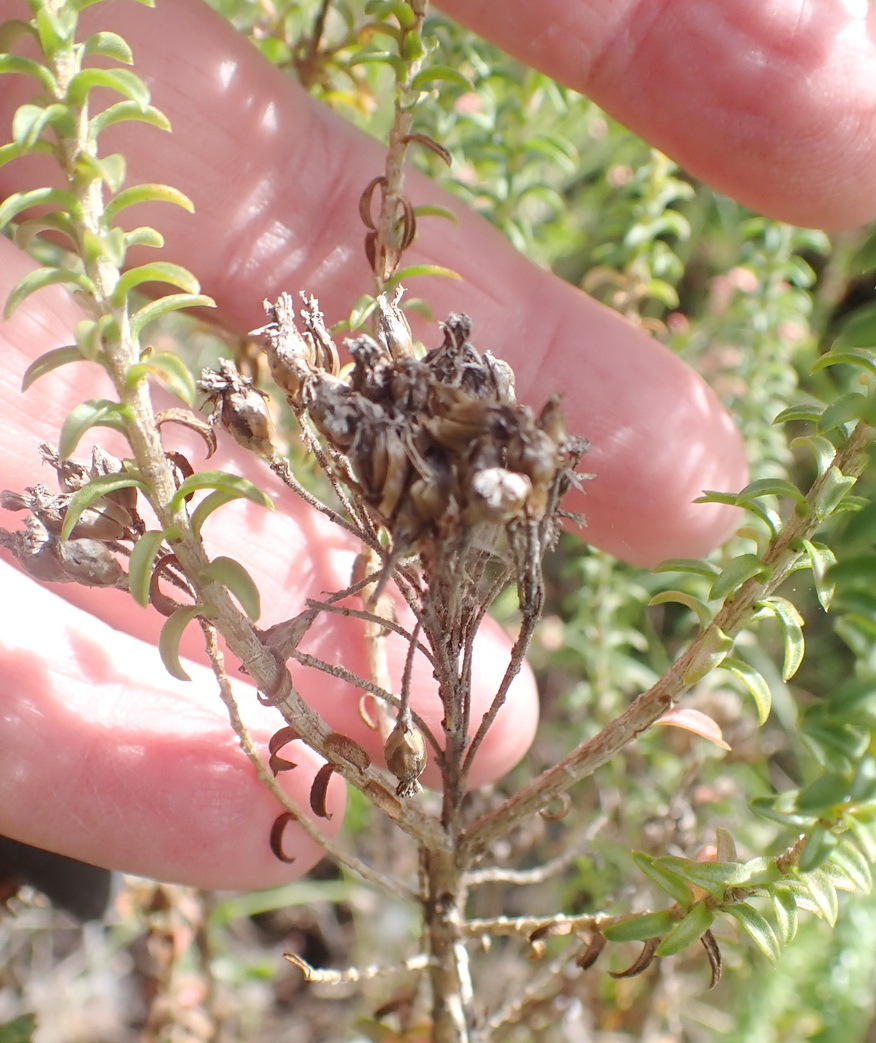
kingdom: Plantae
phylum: Tracheophyta
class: Magnoliopsida
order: Asterales
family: Asteraceae
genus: Athanasia
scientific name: Athanasia quinquedentata
